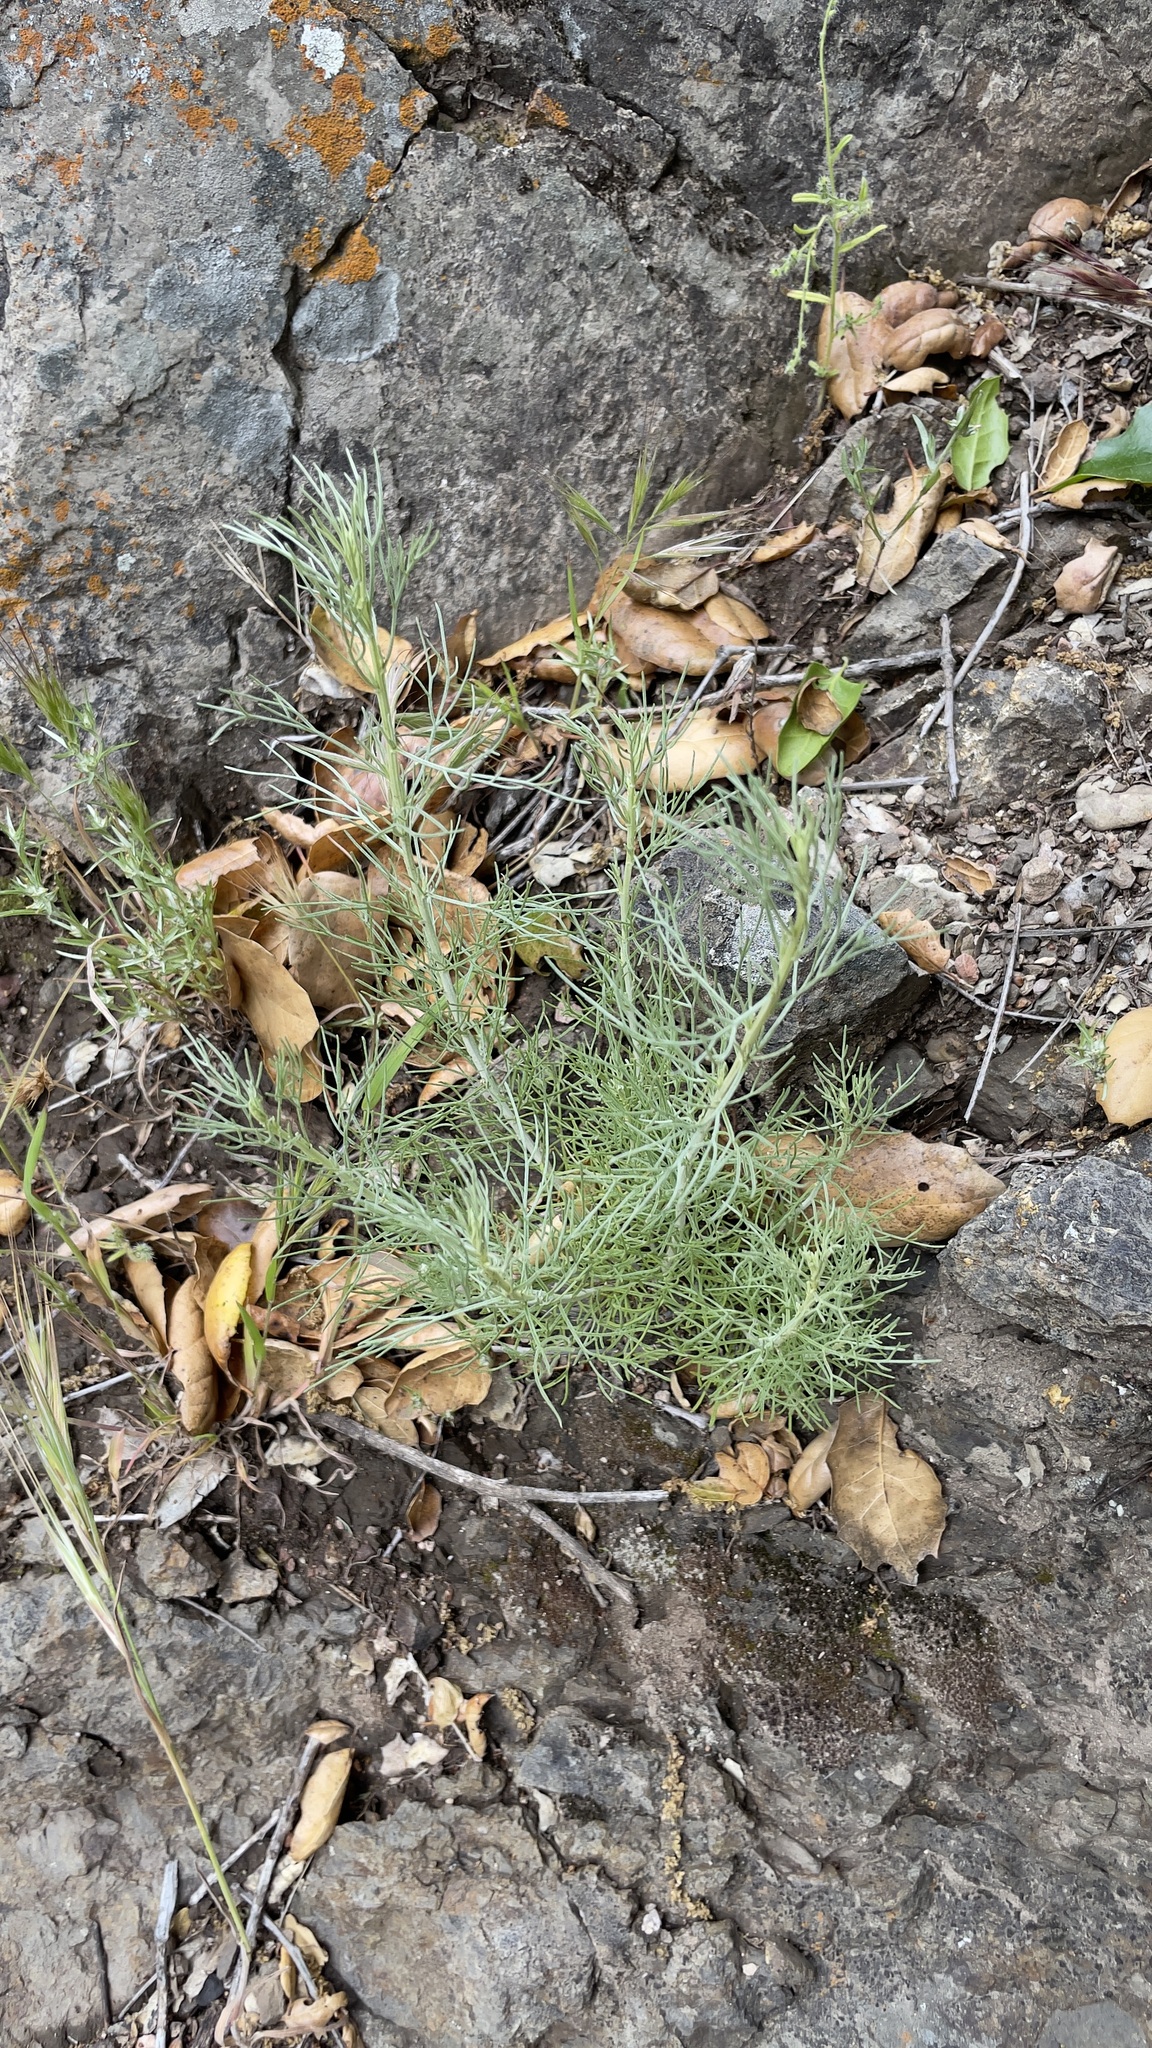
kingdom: Plantae
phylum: Tracheophyta
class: Magnoliopsida
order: Asterales
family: Asteraceae
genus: Artemisia
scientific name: Artemisia californica
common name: California sagebrush
